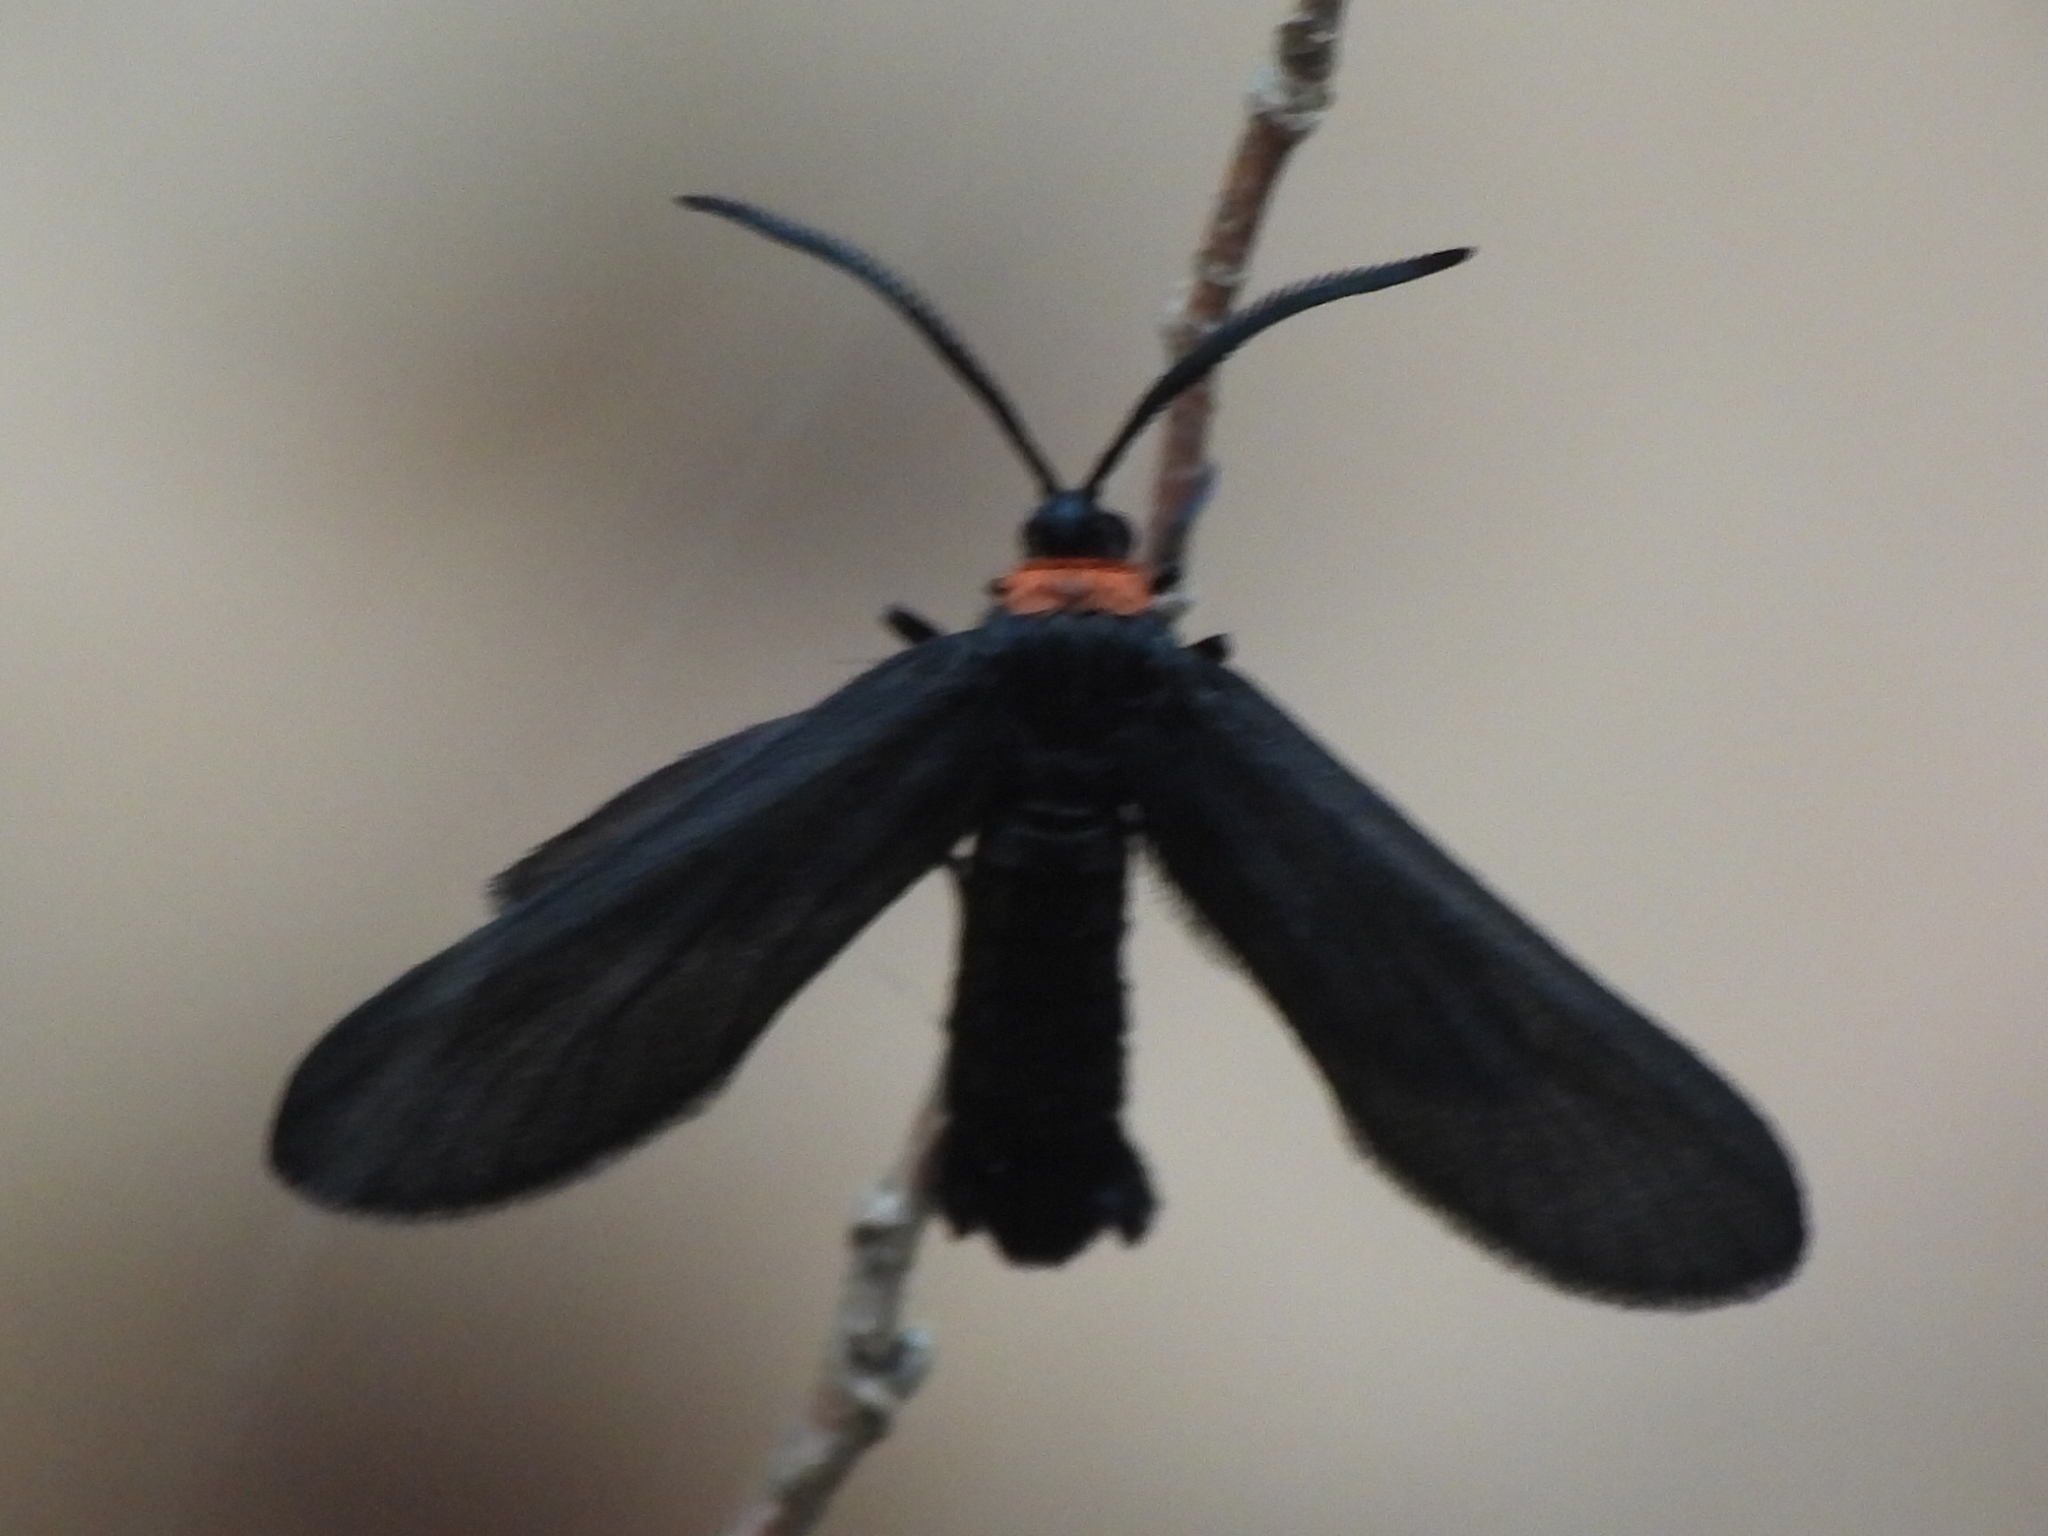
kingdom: Animalia
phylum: Arthropoda
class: Insecta
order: Lepidoptera
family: Zygaenidae
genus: Harrisina
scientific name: Harrisina americana
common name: Grapeleaf skeletonizer moth
